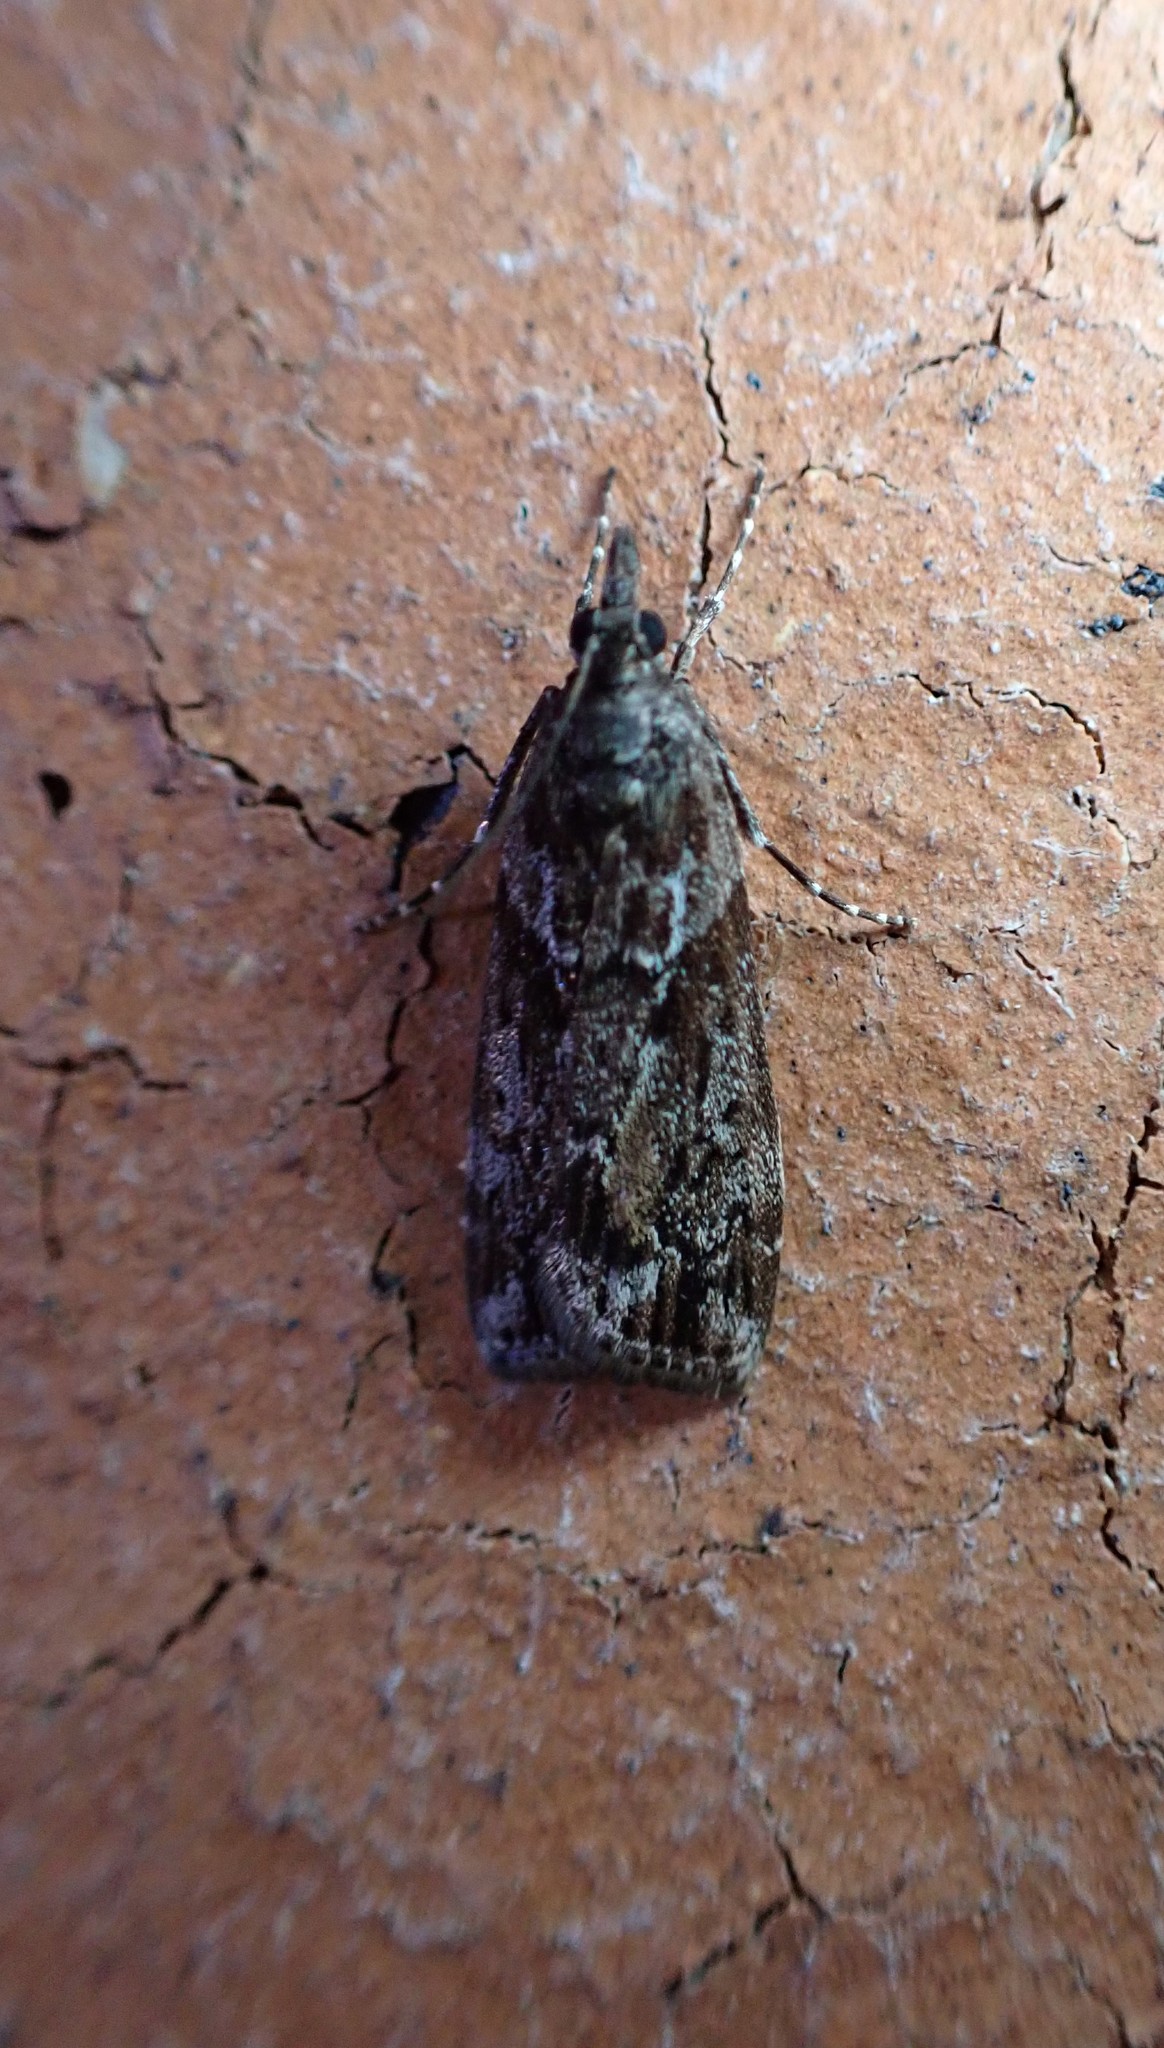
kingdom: Animalia
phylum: Arthropoda
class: Insecta
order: Lepidoptera
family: Crambidae
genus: Eudonia
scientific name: Eudonia submarginalis
